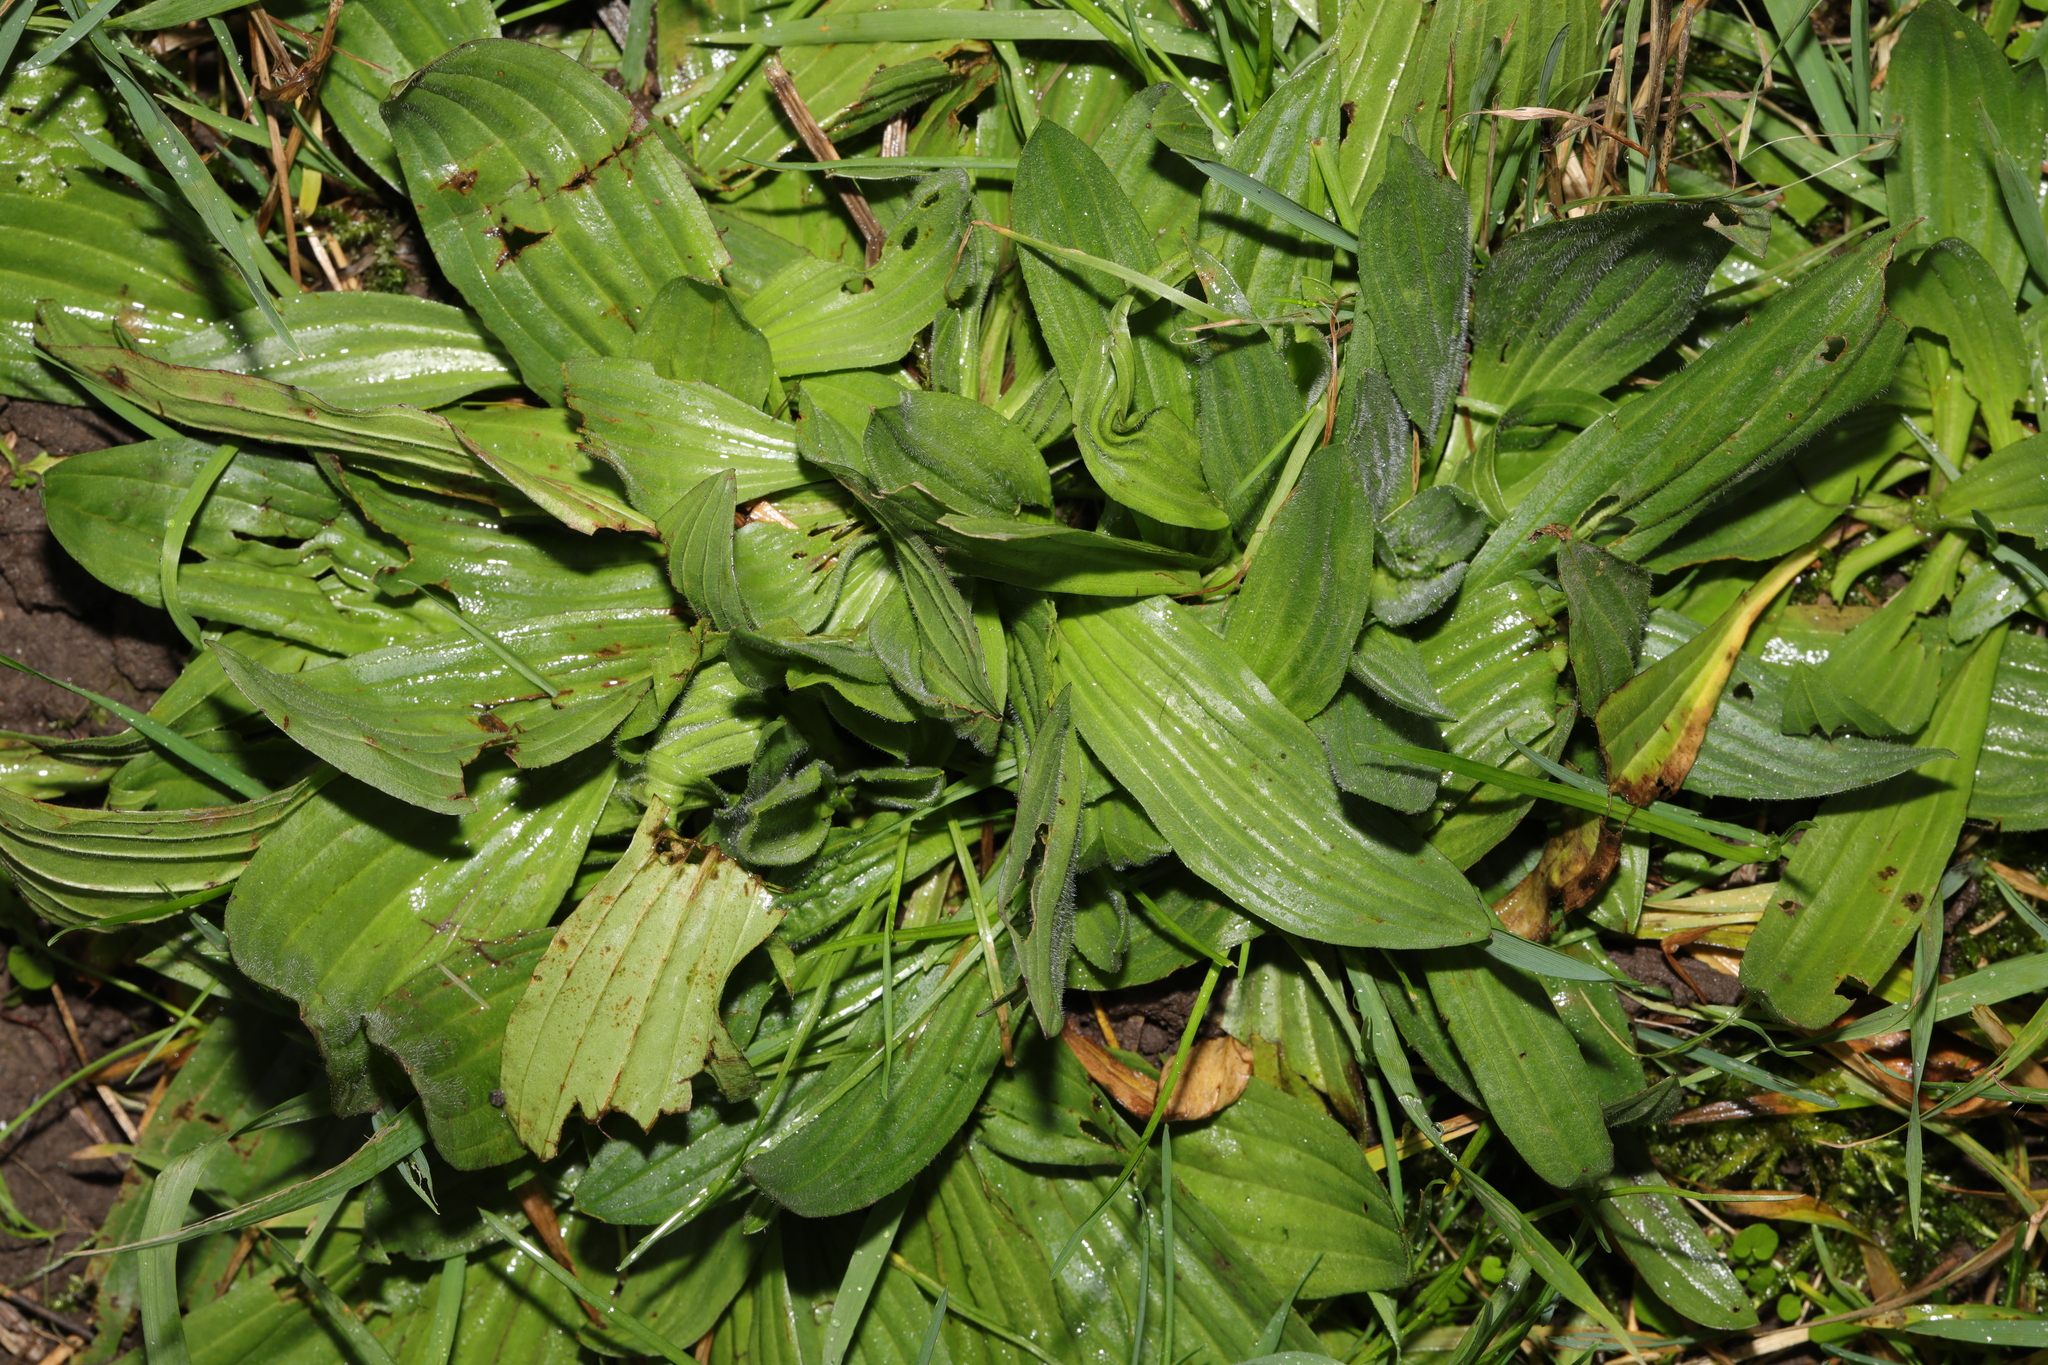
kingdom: Plantae
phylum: Tracheophyta
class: Magnoliopsida
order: Lamiales
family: Plantaginaceae
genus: Plantago
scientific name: Plantago lanceolata
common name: Ribwort plantain
